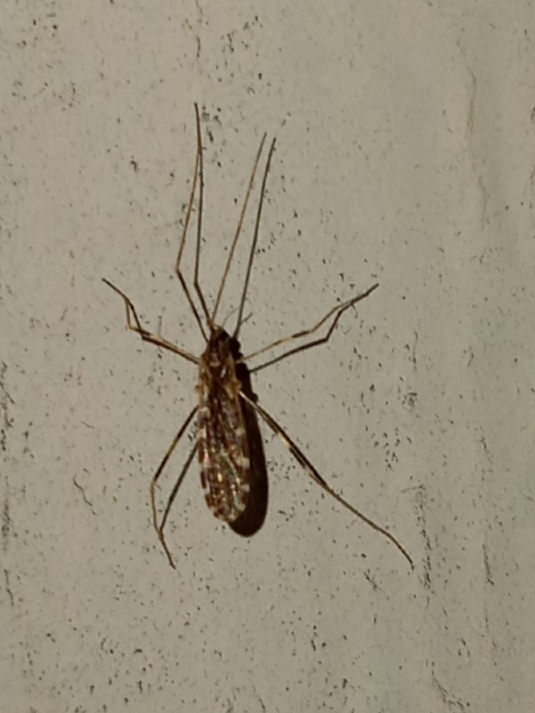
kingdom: Animalia
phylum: Arthropoda
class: Insecta
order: Diptera
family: Limoniidae
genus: Erioptera
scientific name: Erioptera caliptera
